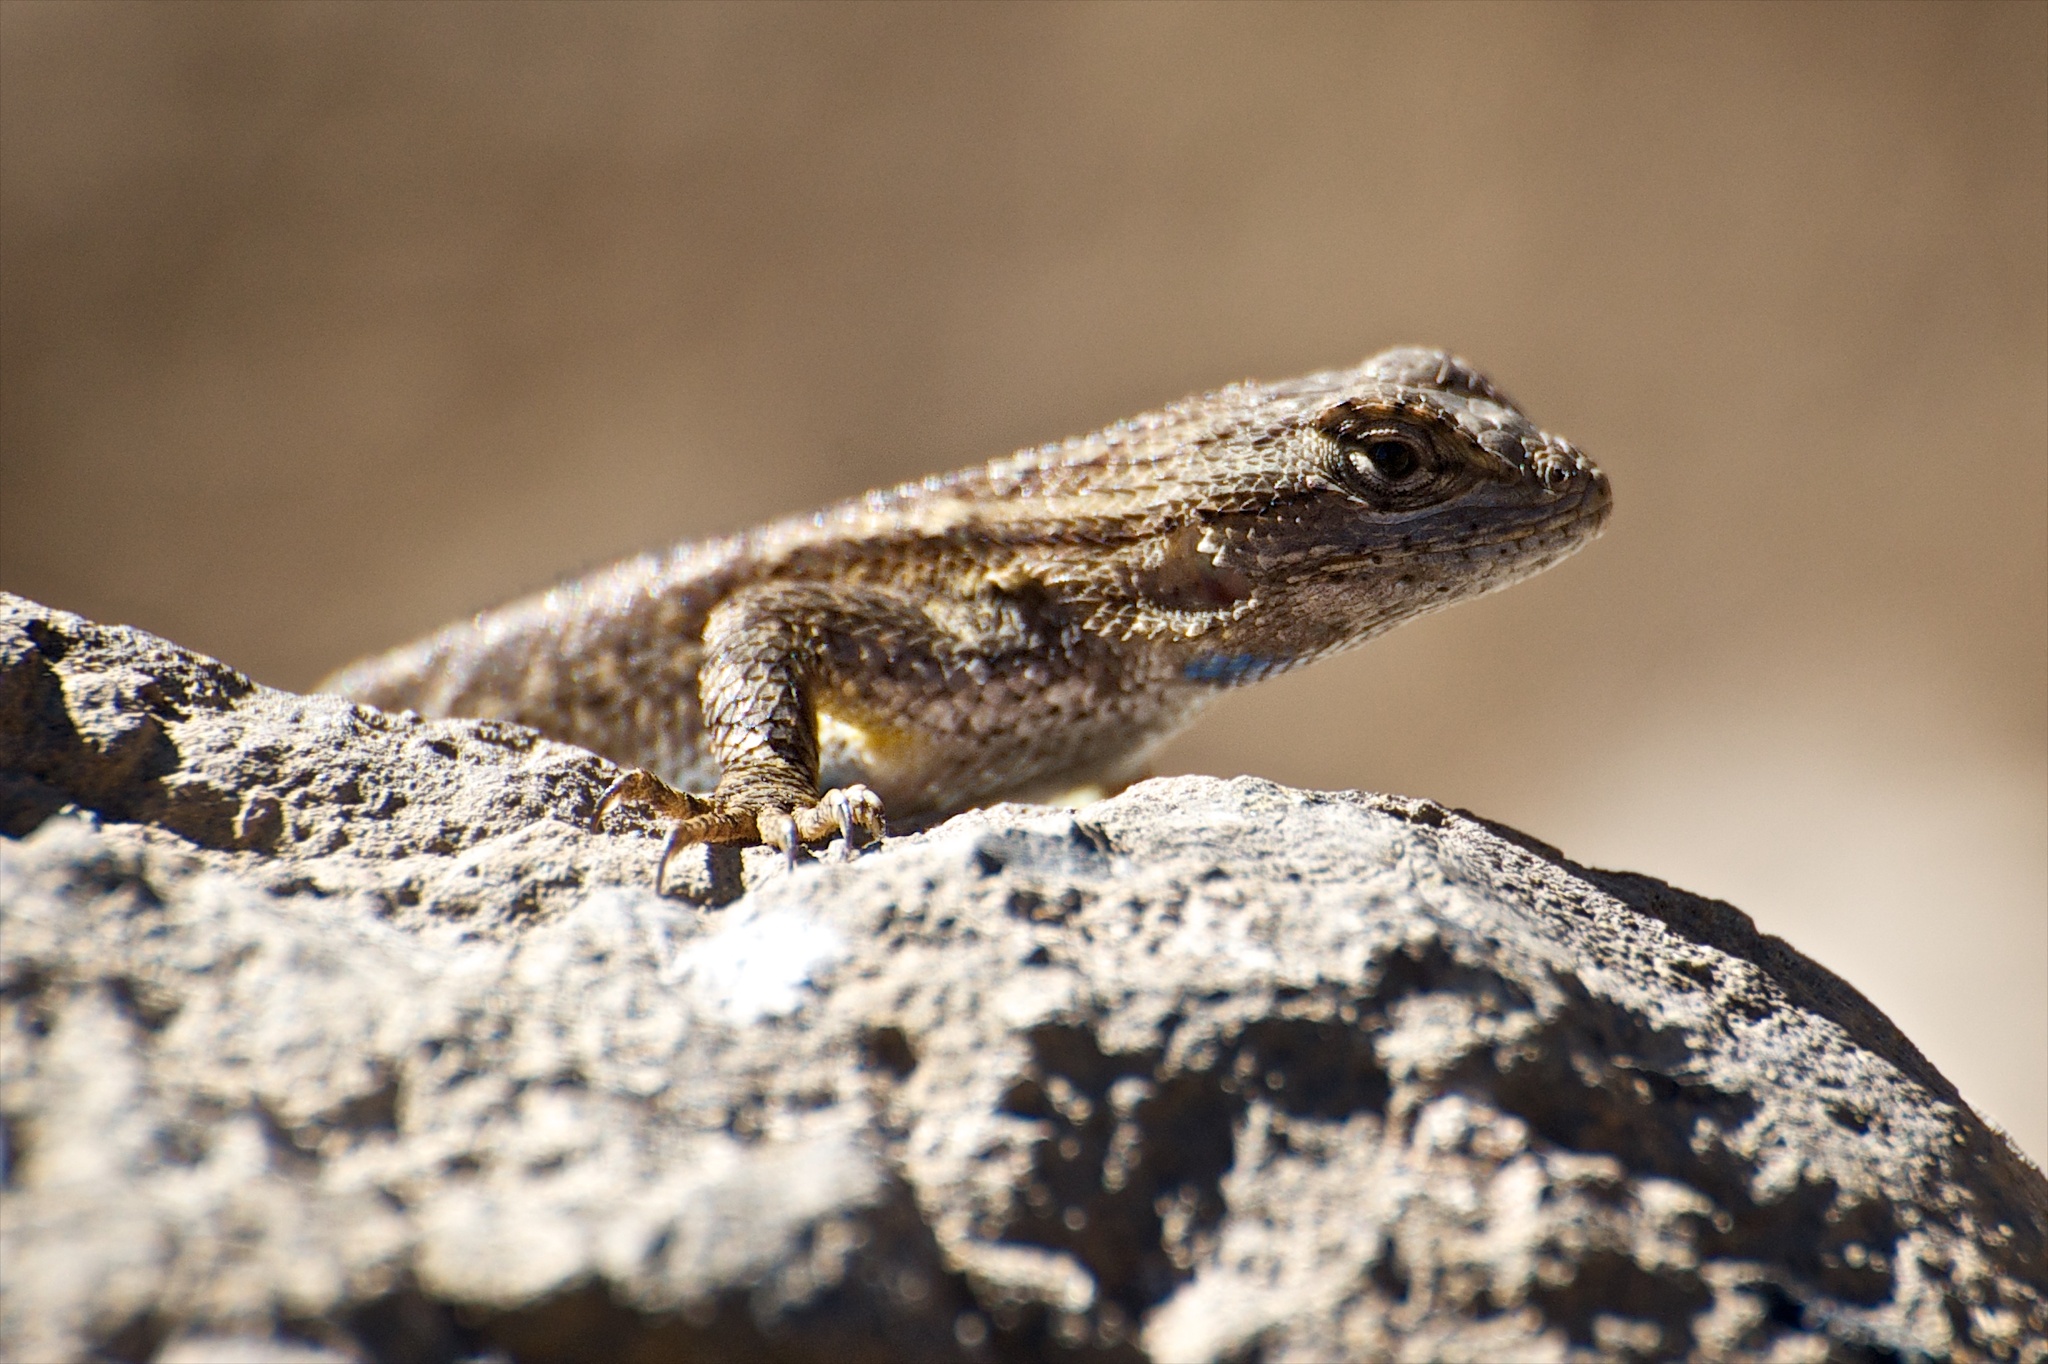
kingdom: Animalia
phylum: Chordata
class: Squamata
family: Phrynosomatidae
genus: Sceloporus
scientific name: Sceloporus occidentalis
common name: Western fence lizard
